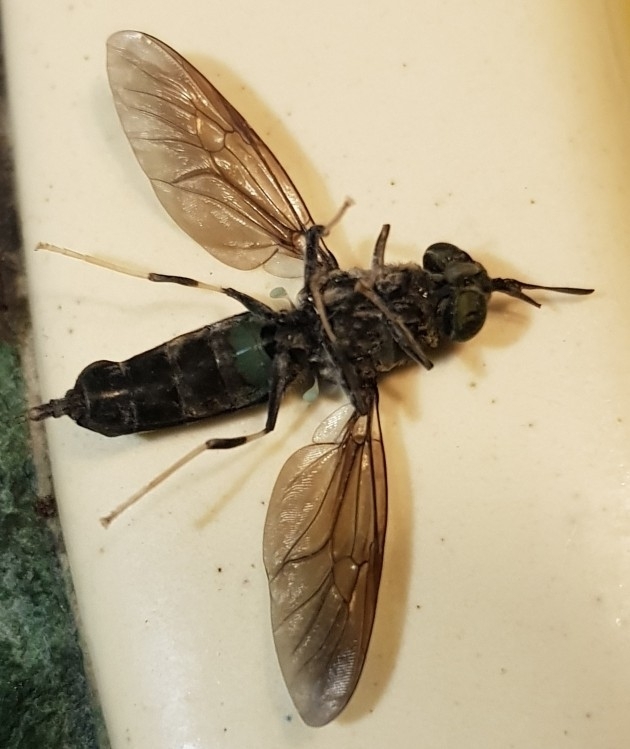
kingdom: Animalia
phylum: Arthropoda
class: Insecta
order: Diptera
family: Stratiomyidae
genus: Hermetia
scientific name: Hermetia illucens
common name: Black soldier fly
